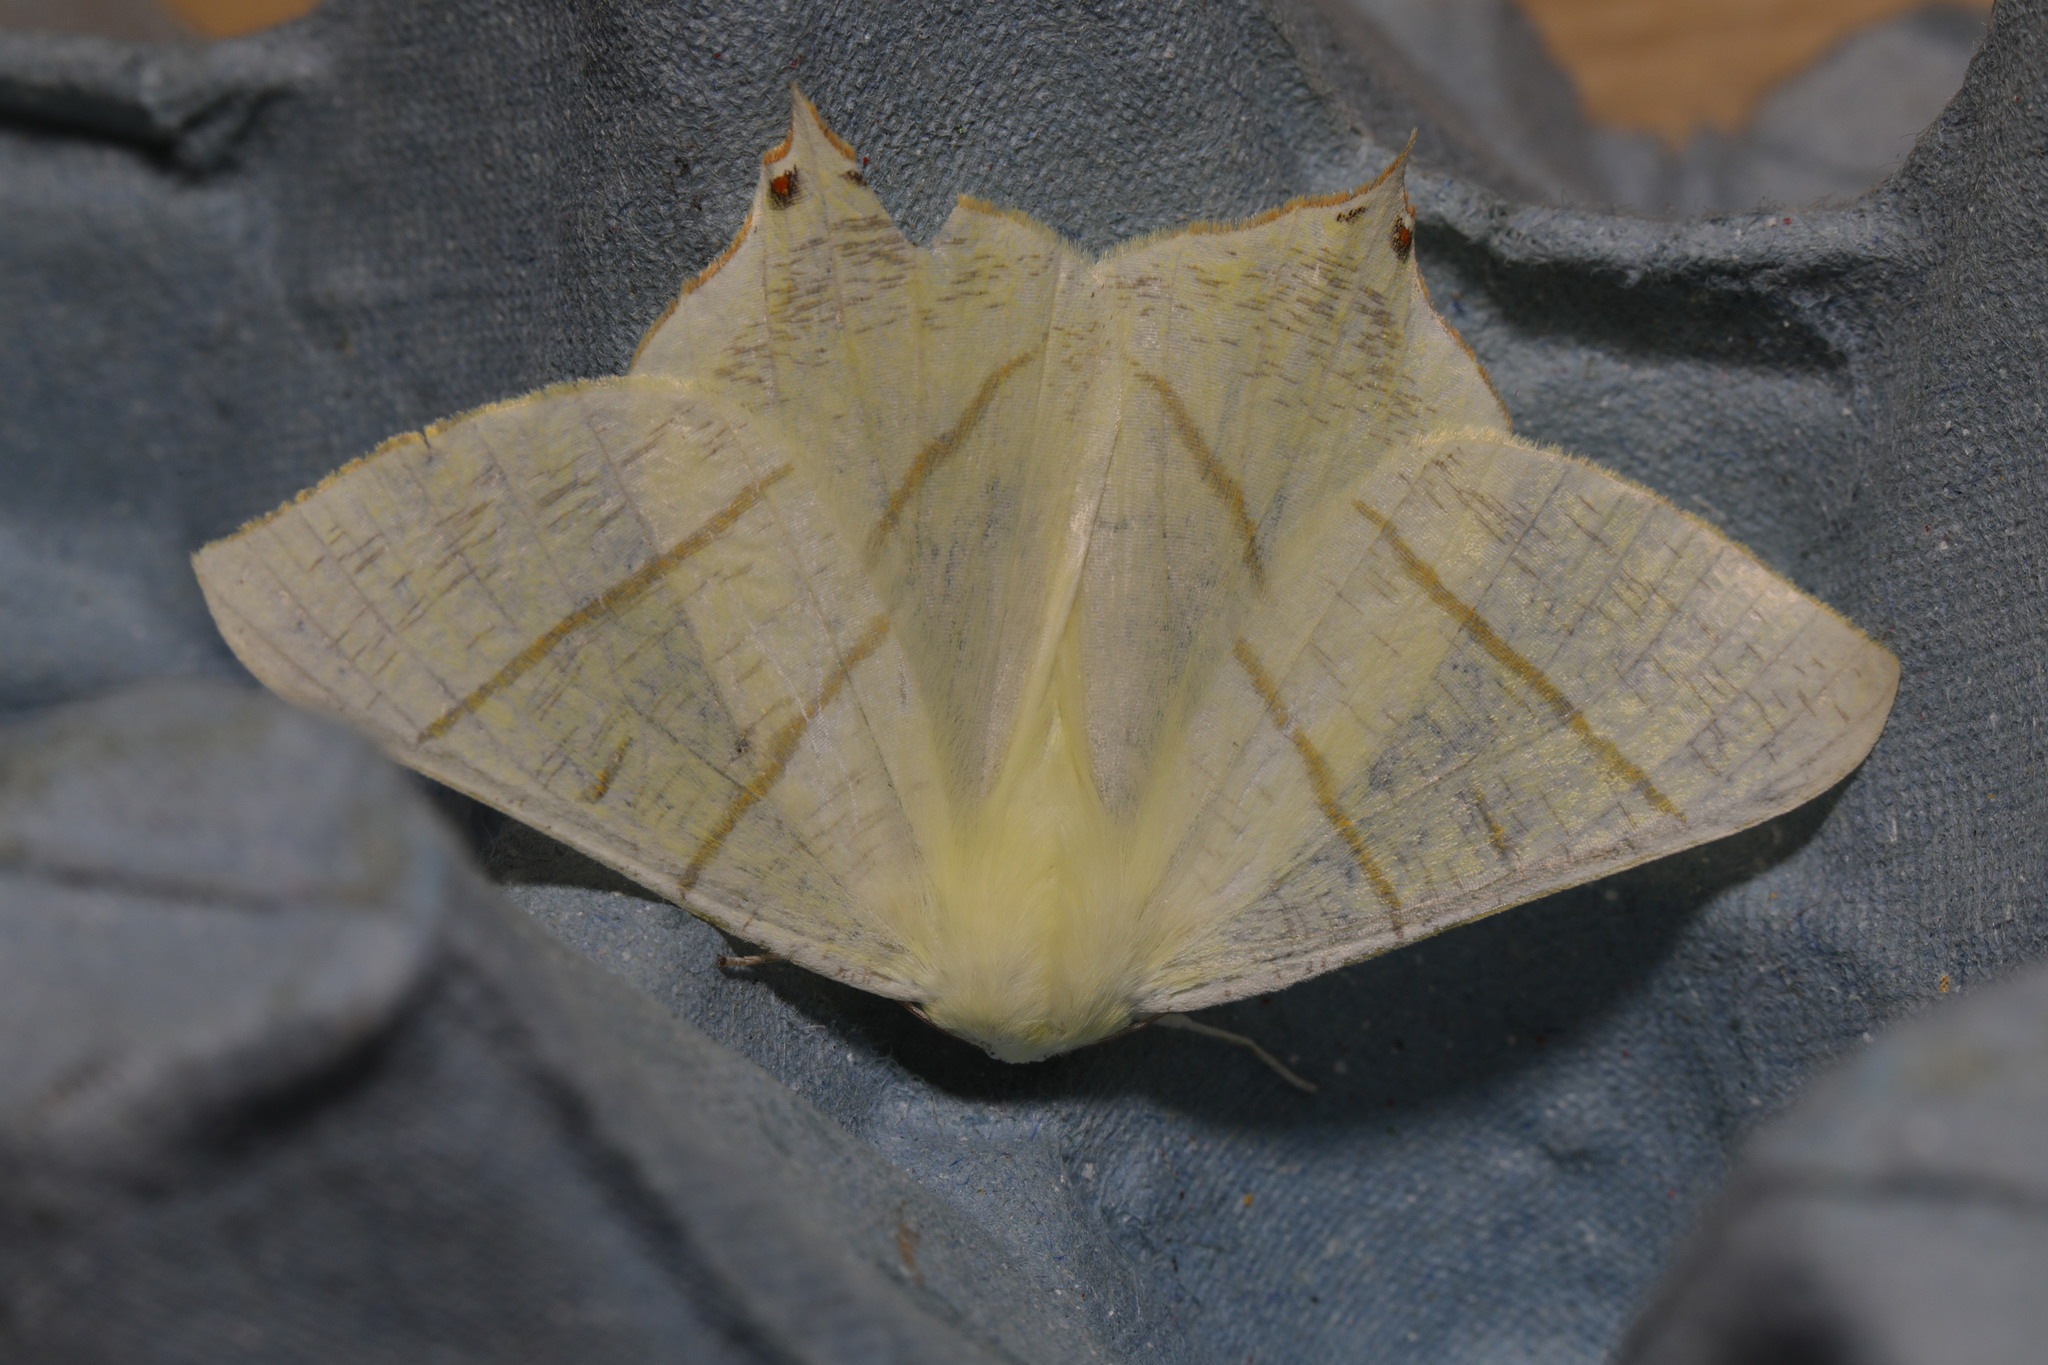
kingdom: Animalia
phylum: Arthropoda
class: Insecta
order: Lepidoptera
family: Geometridae
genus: Ourapteryx
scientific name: Ourapteryx sambucaria
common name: Swallow-tailed moth
